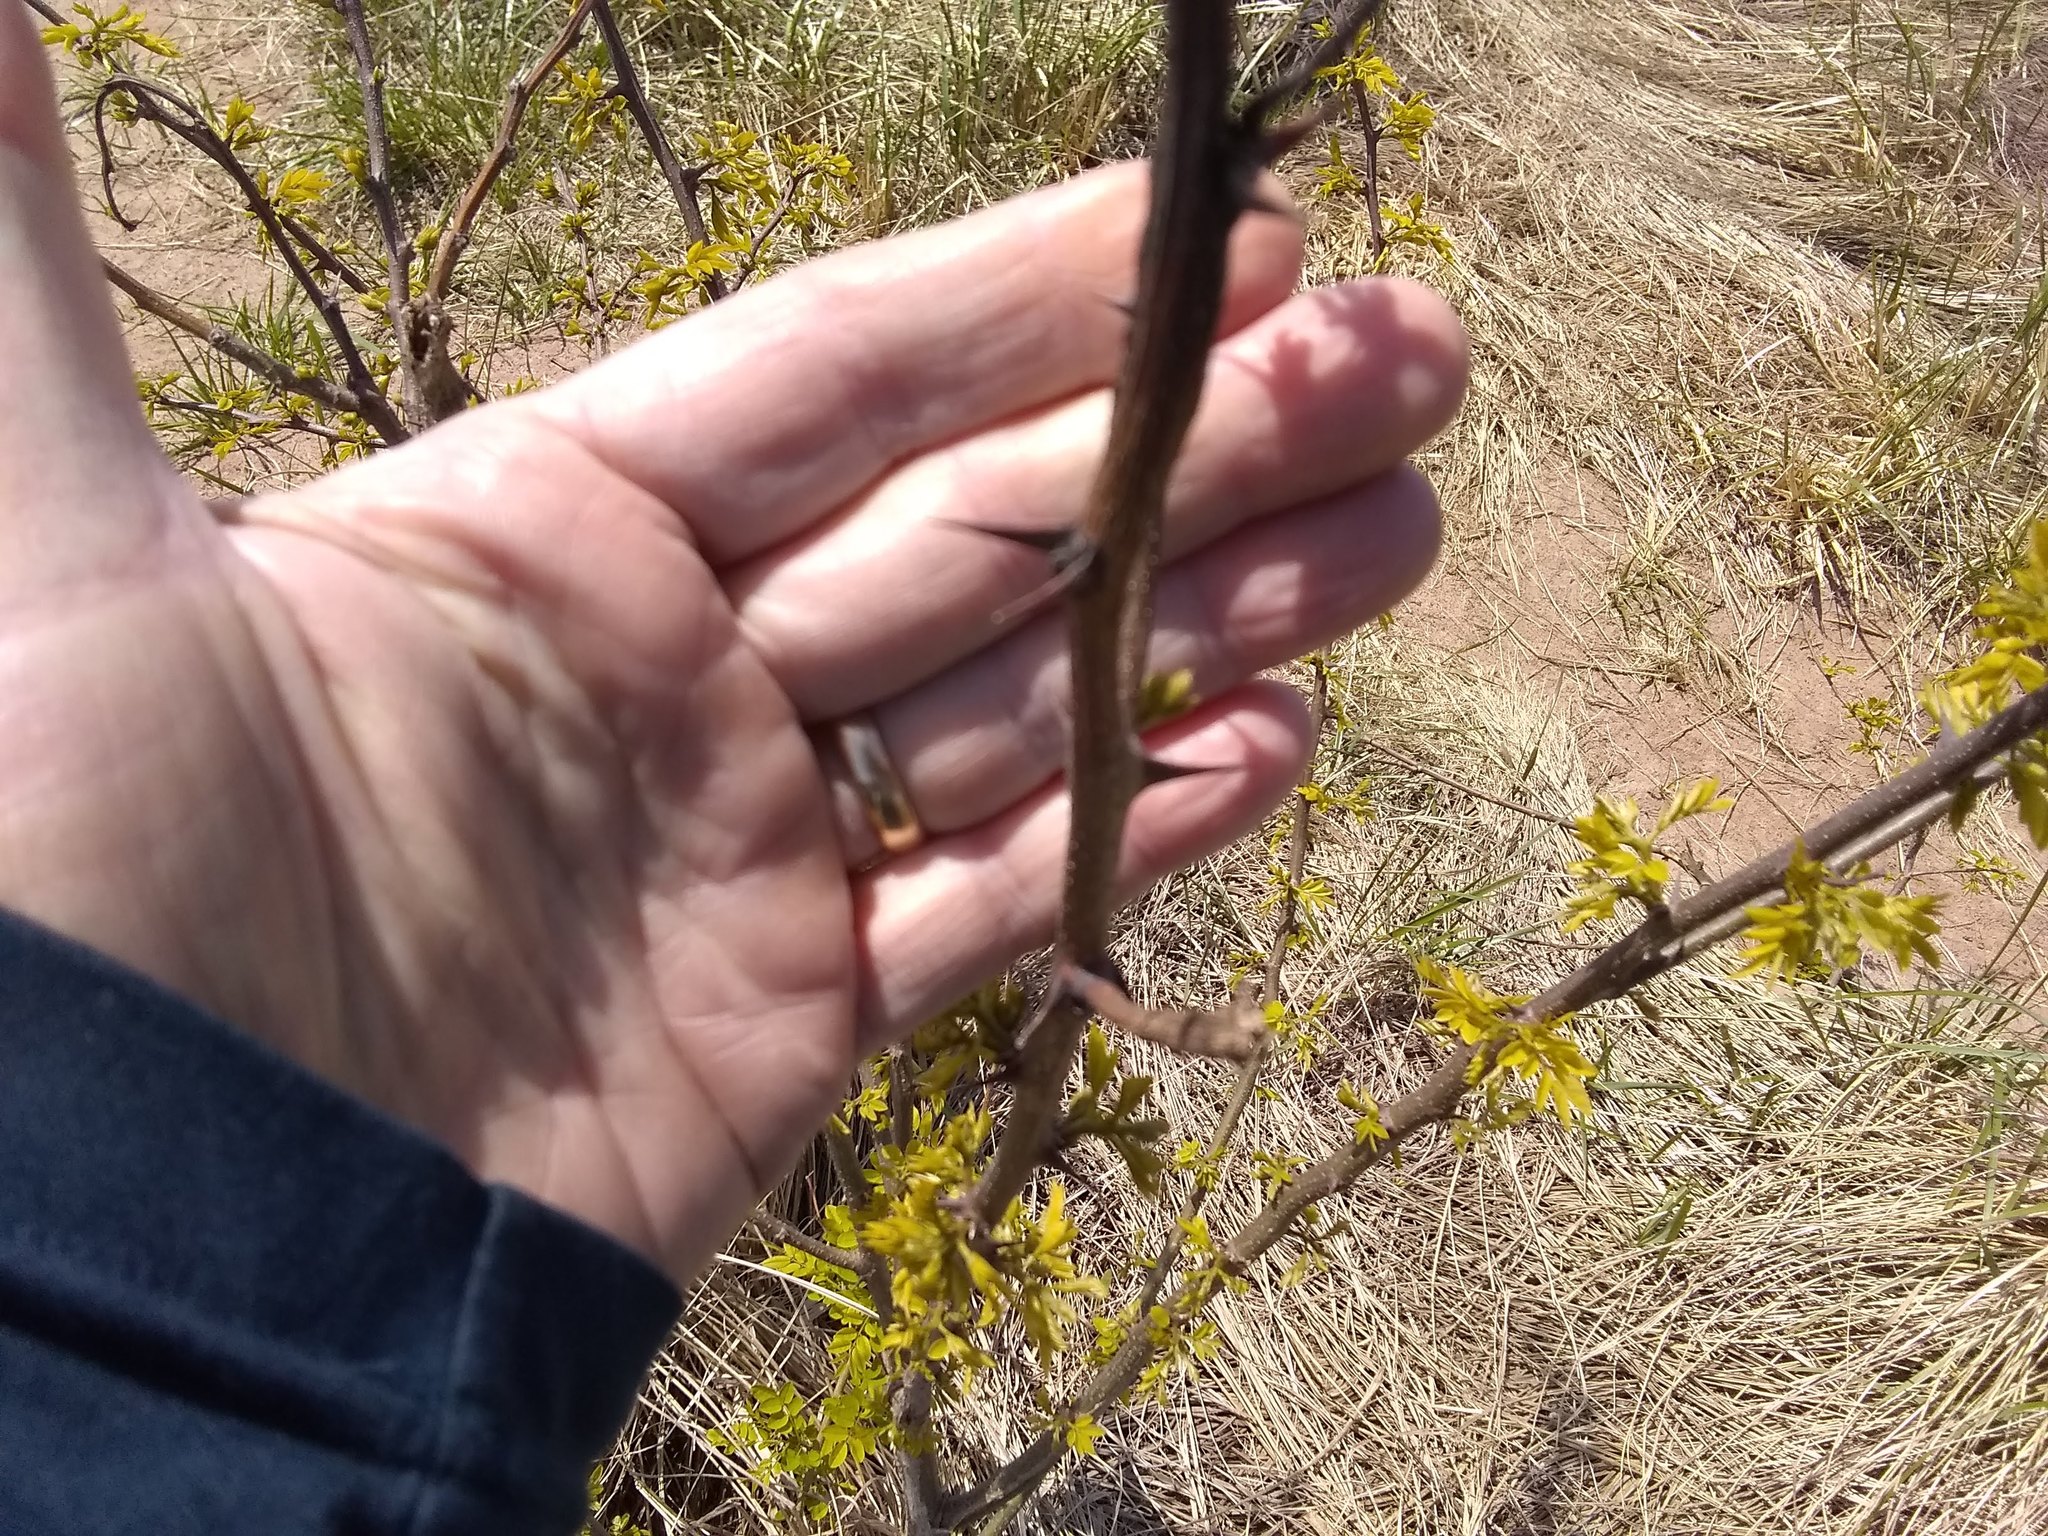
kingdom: Plantae
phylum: Tracheophyta
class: Magnoliopsida
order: Fabales
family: Fabaceae
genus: Robinia
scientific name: Robinia pseudoacacia
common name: Black locust
